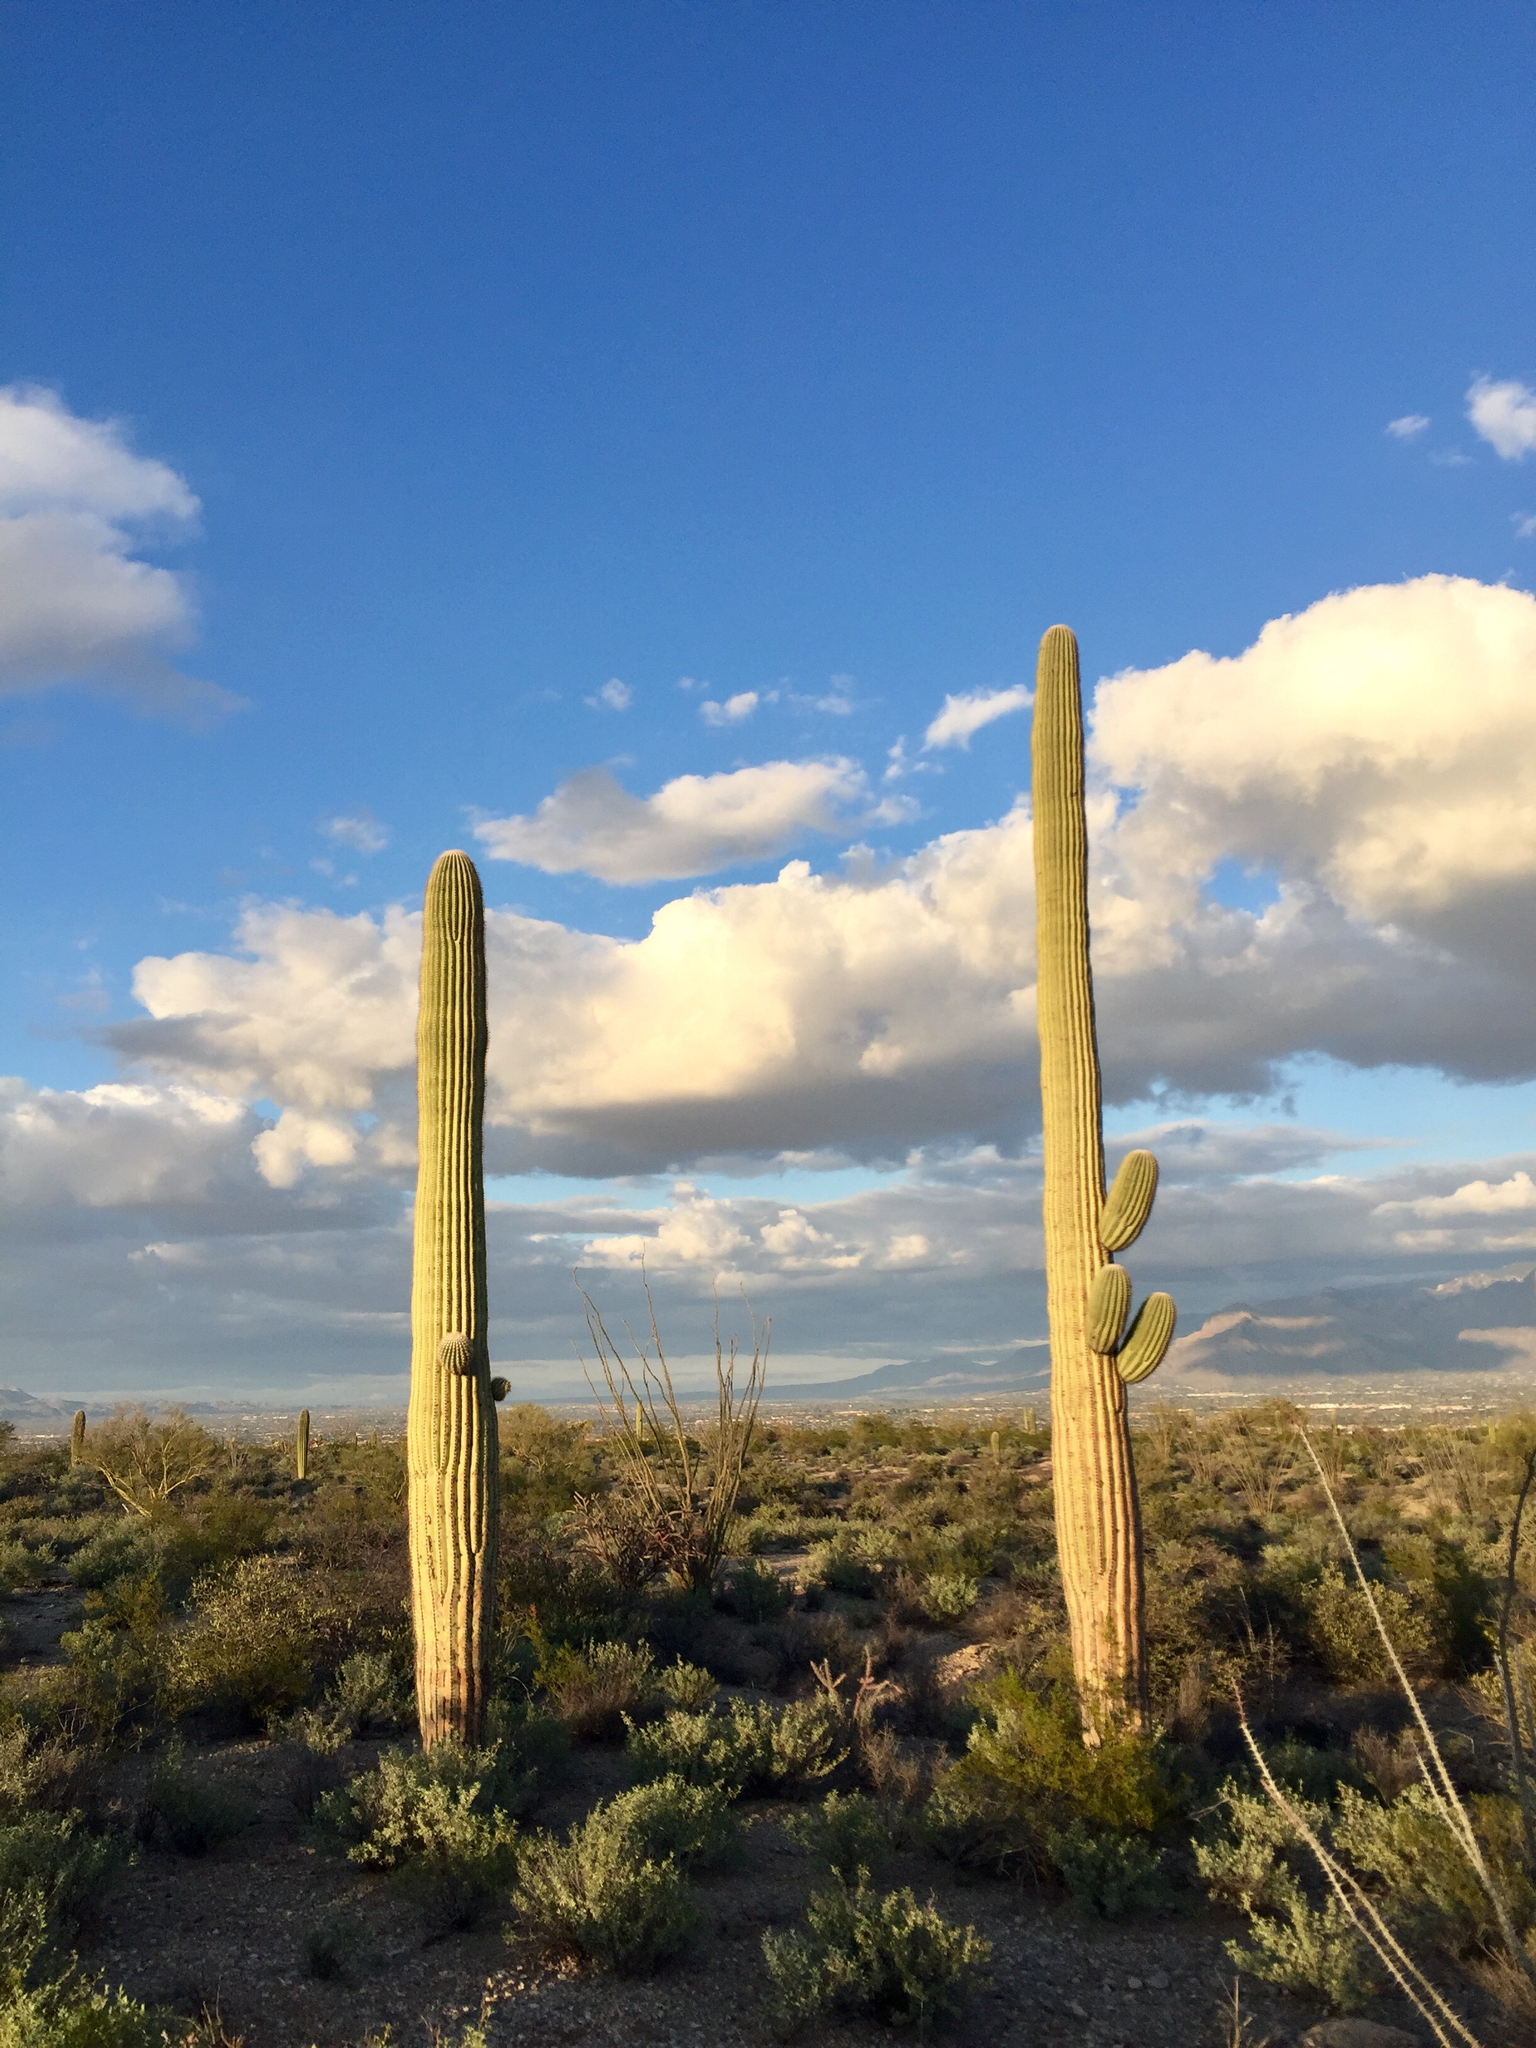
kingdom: Plantae
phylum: Tracheophyta
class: Magnoliopsida
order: Caryophyllales
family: Cactaceae
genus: Carnegiea
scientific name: Carnegiea gigantea
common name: Saguaro
